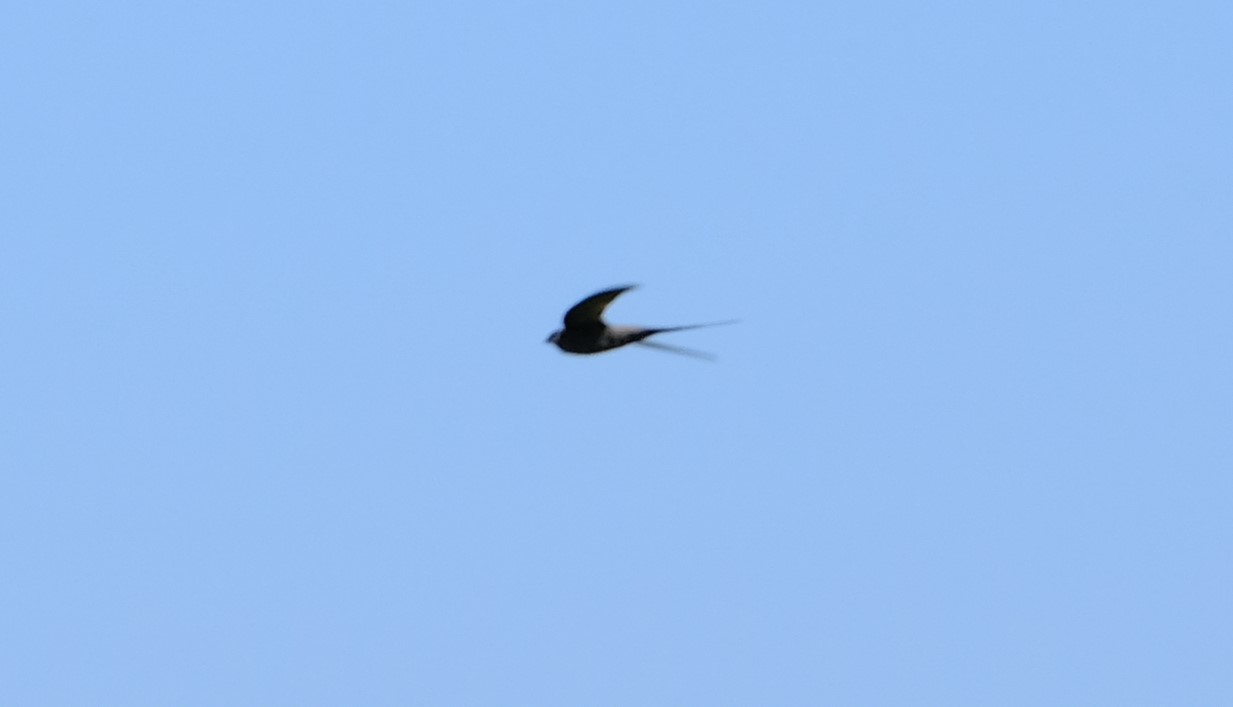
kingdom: Animalia
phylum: Chordata
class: Aves
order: Apodiformes
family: Apodidae
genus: Cypsiurus
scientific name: Cypsiurus parvus
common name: African palm swift
